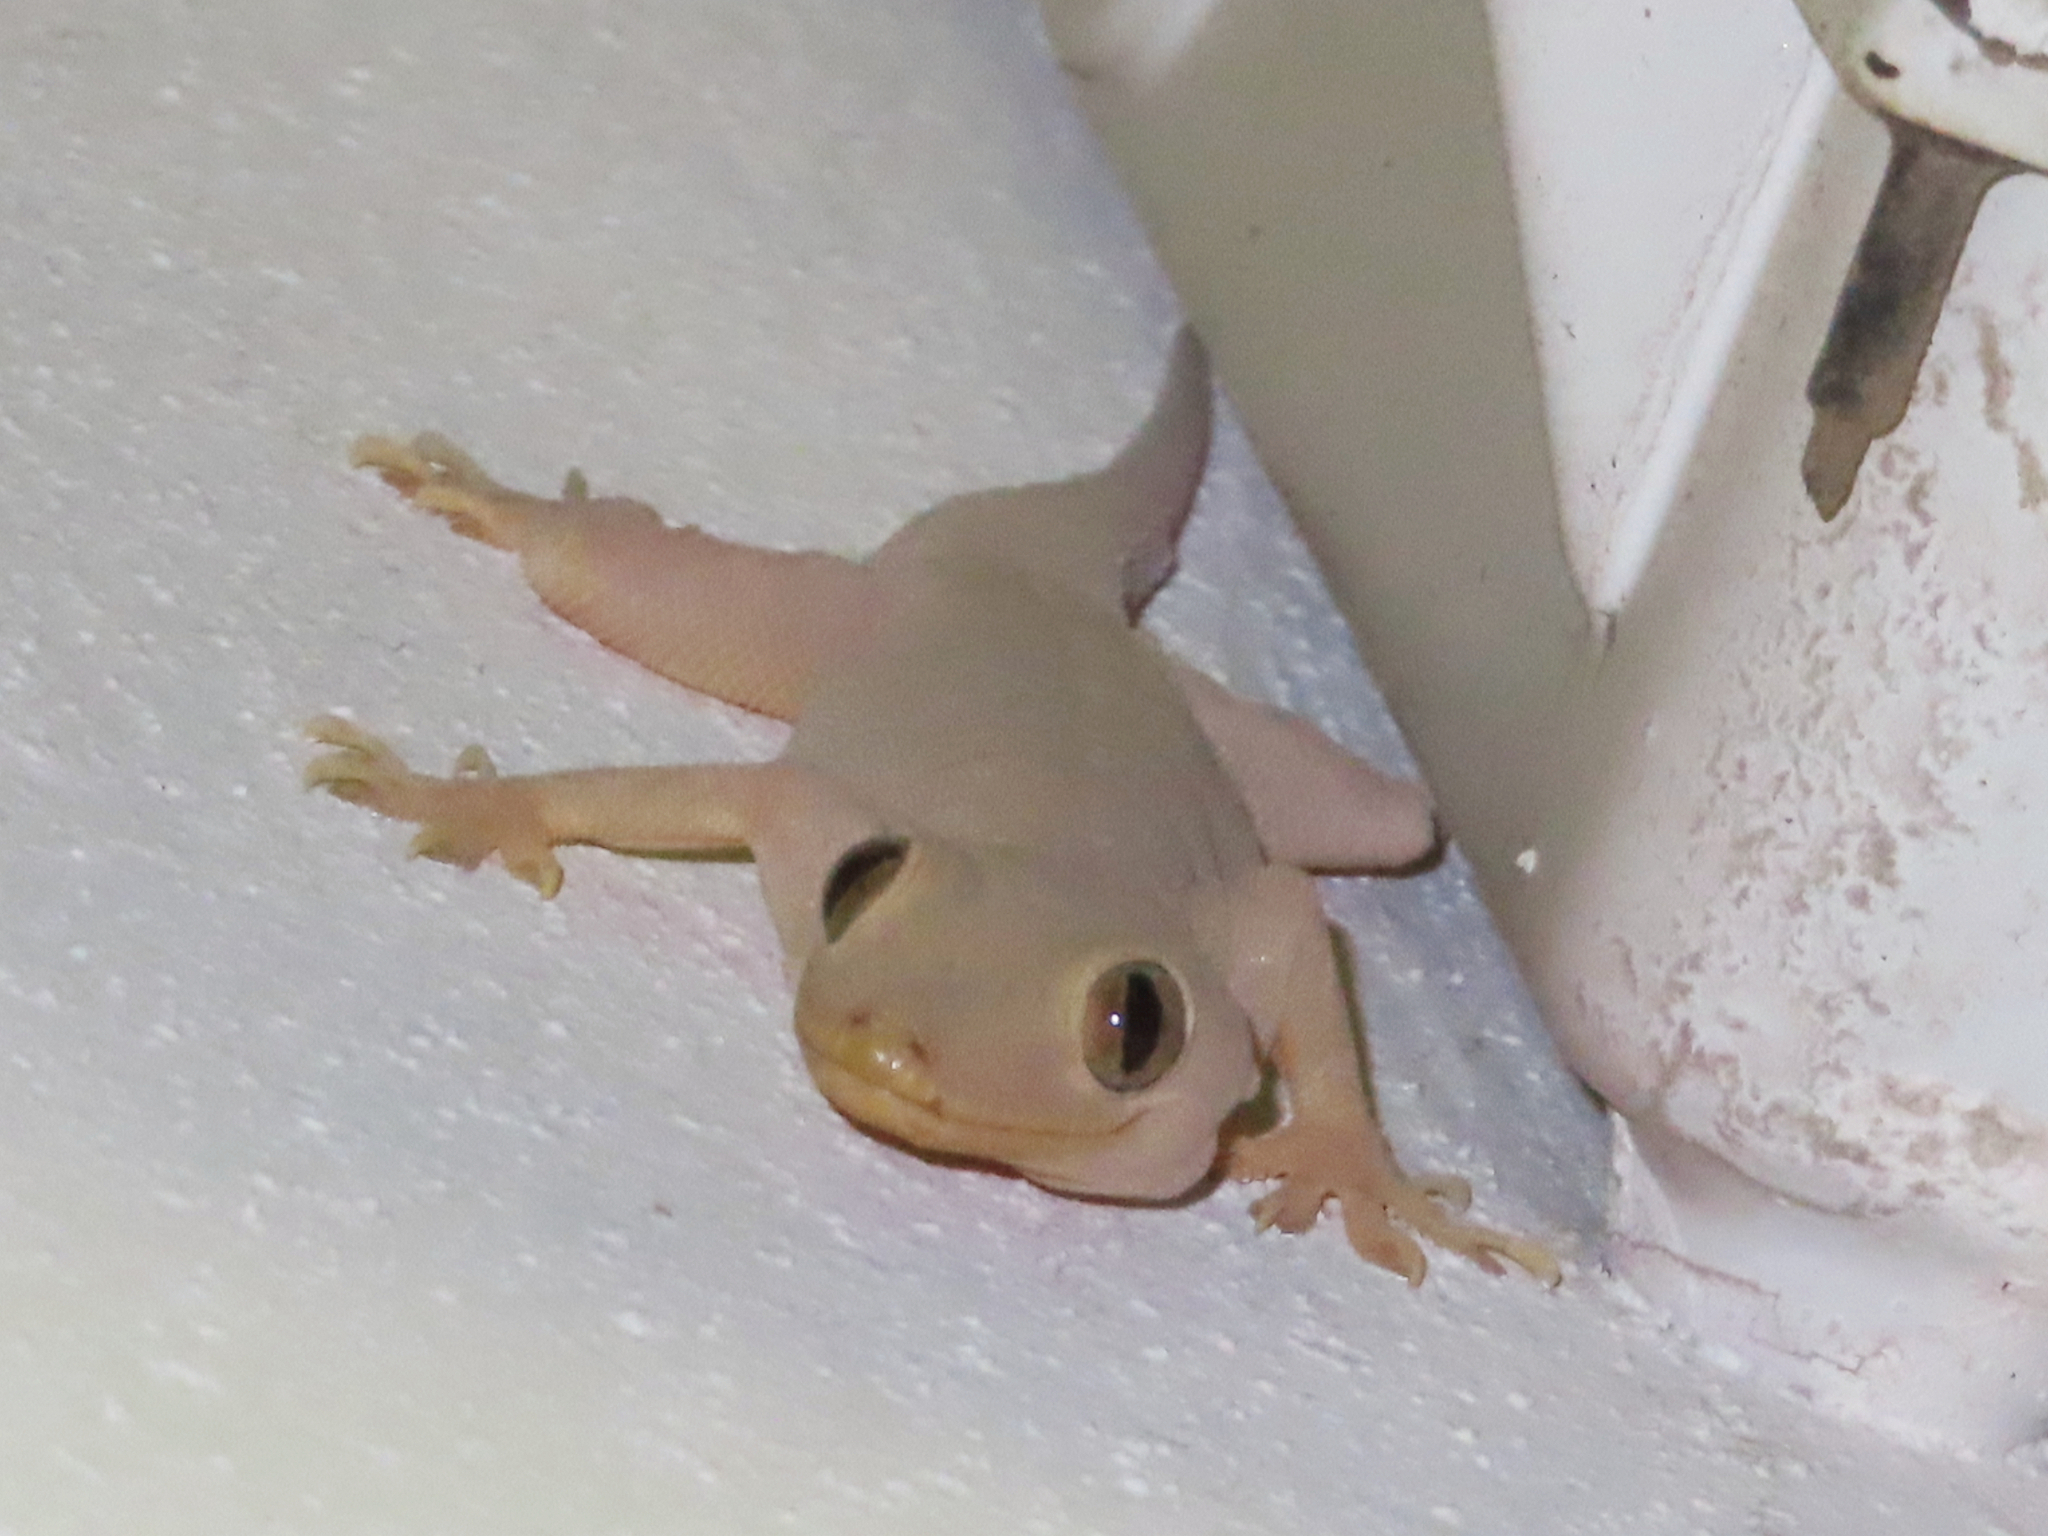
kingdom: Animalia
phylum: Chordata
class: Squamata
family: Gekkonidae
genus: Hemidactylus
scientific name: Hemidactylus flaviviridis
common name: Northern house gecko
